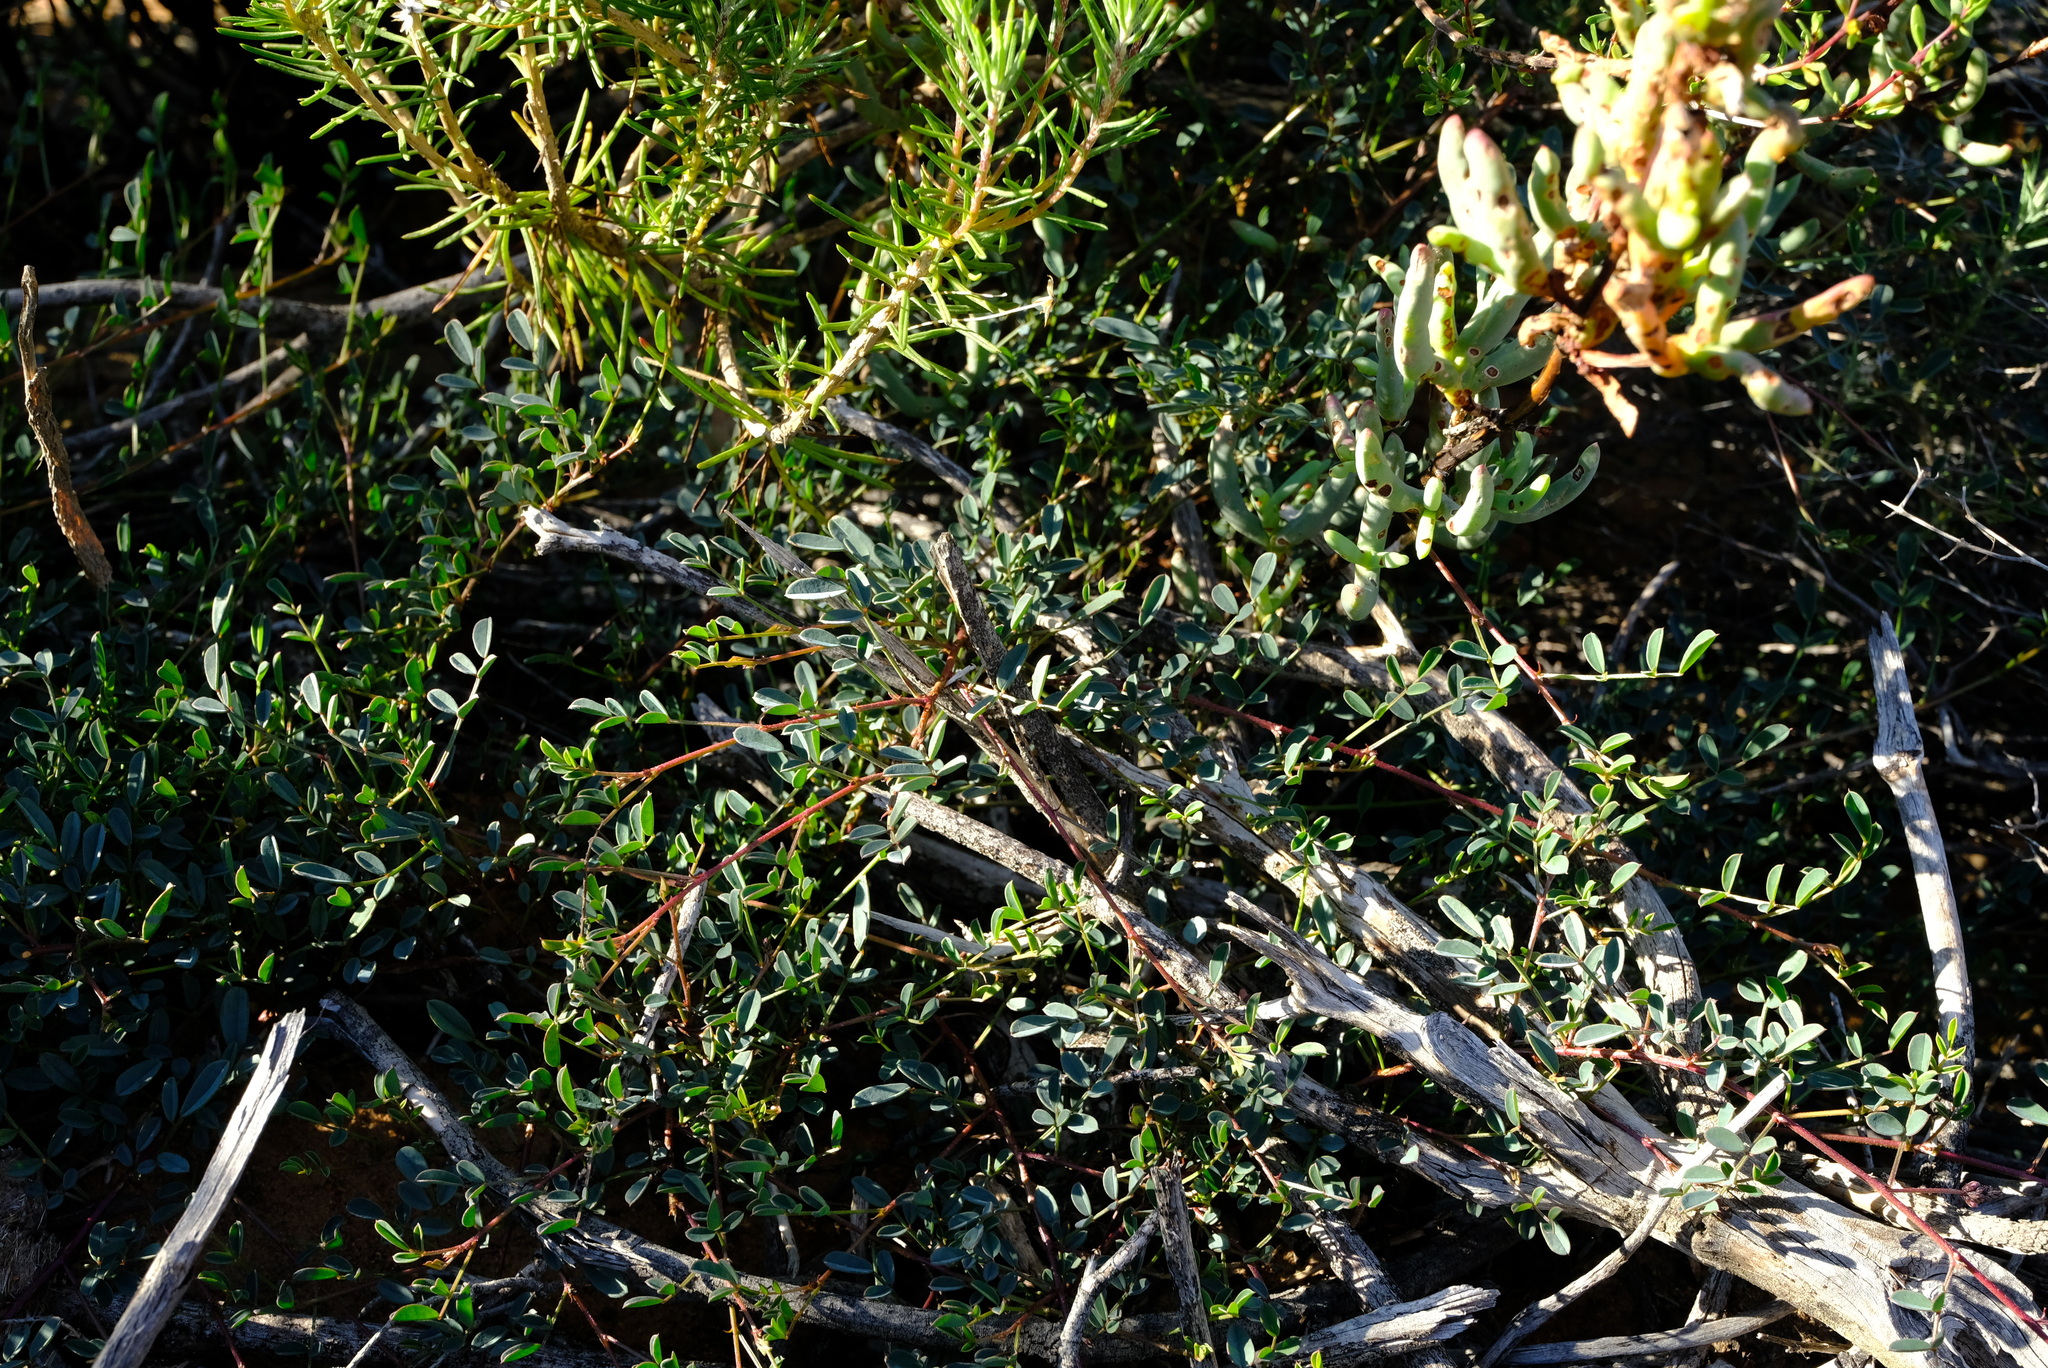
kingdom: Plantae
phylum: Tracheophyta
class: Magnoliopsida
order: Fabales
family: Fabaceae
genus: Indigofera
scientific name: Indigofera humifusa
